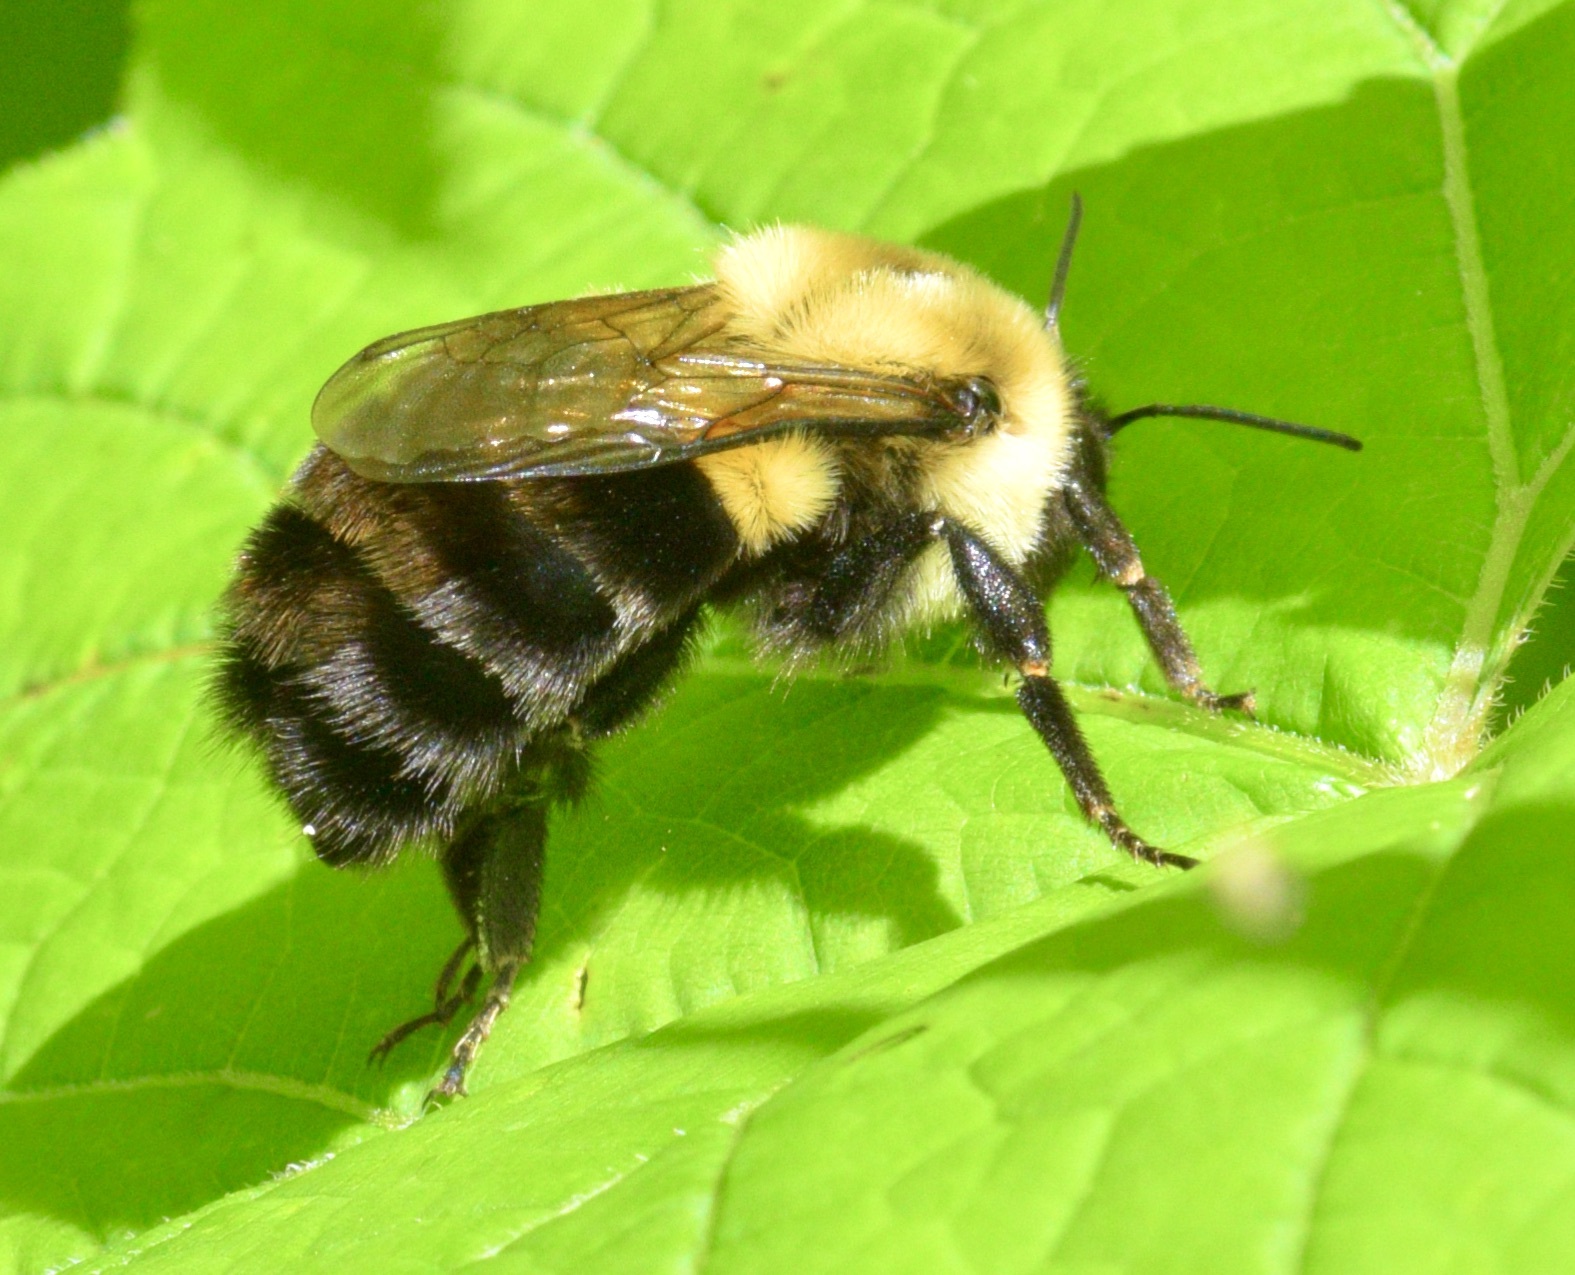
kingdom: Animalia
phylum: Arthropoda
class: Insecta
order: Hymenoptera
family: Apidae
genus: Bombus
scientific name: Bombus impatiens
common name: Common eastern bumble bee
